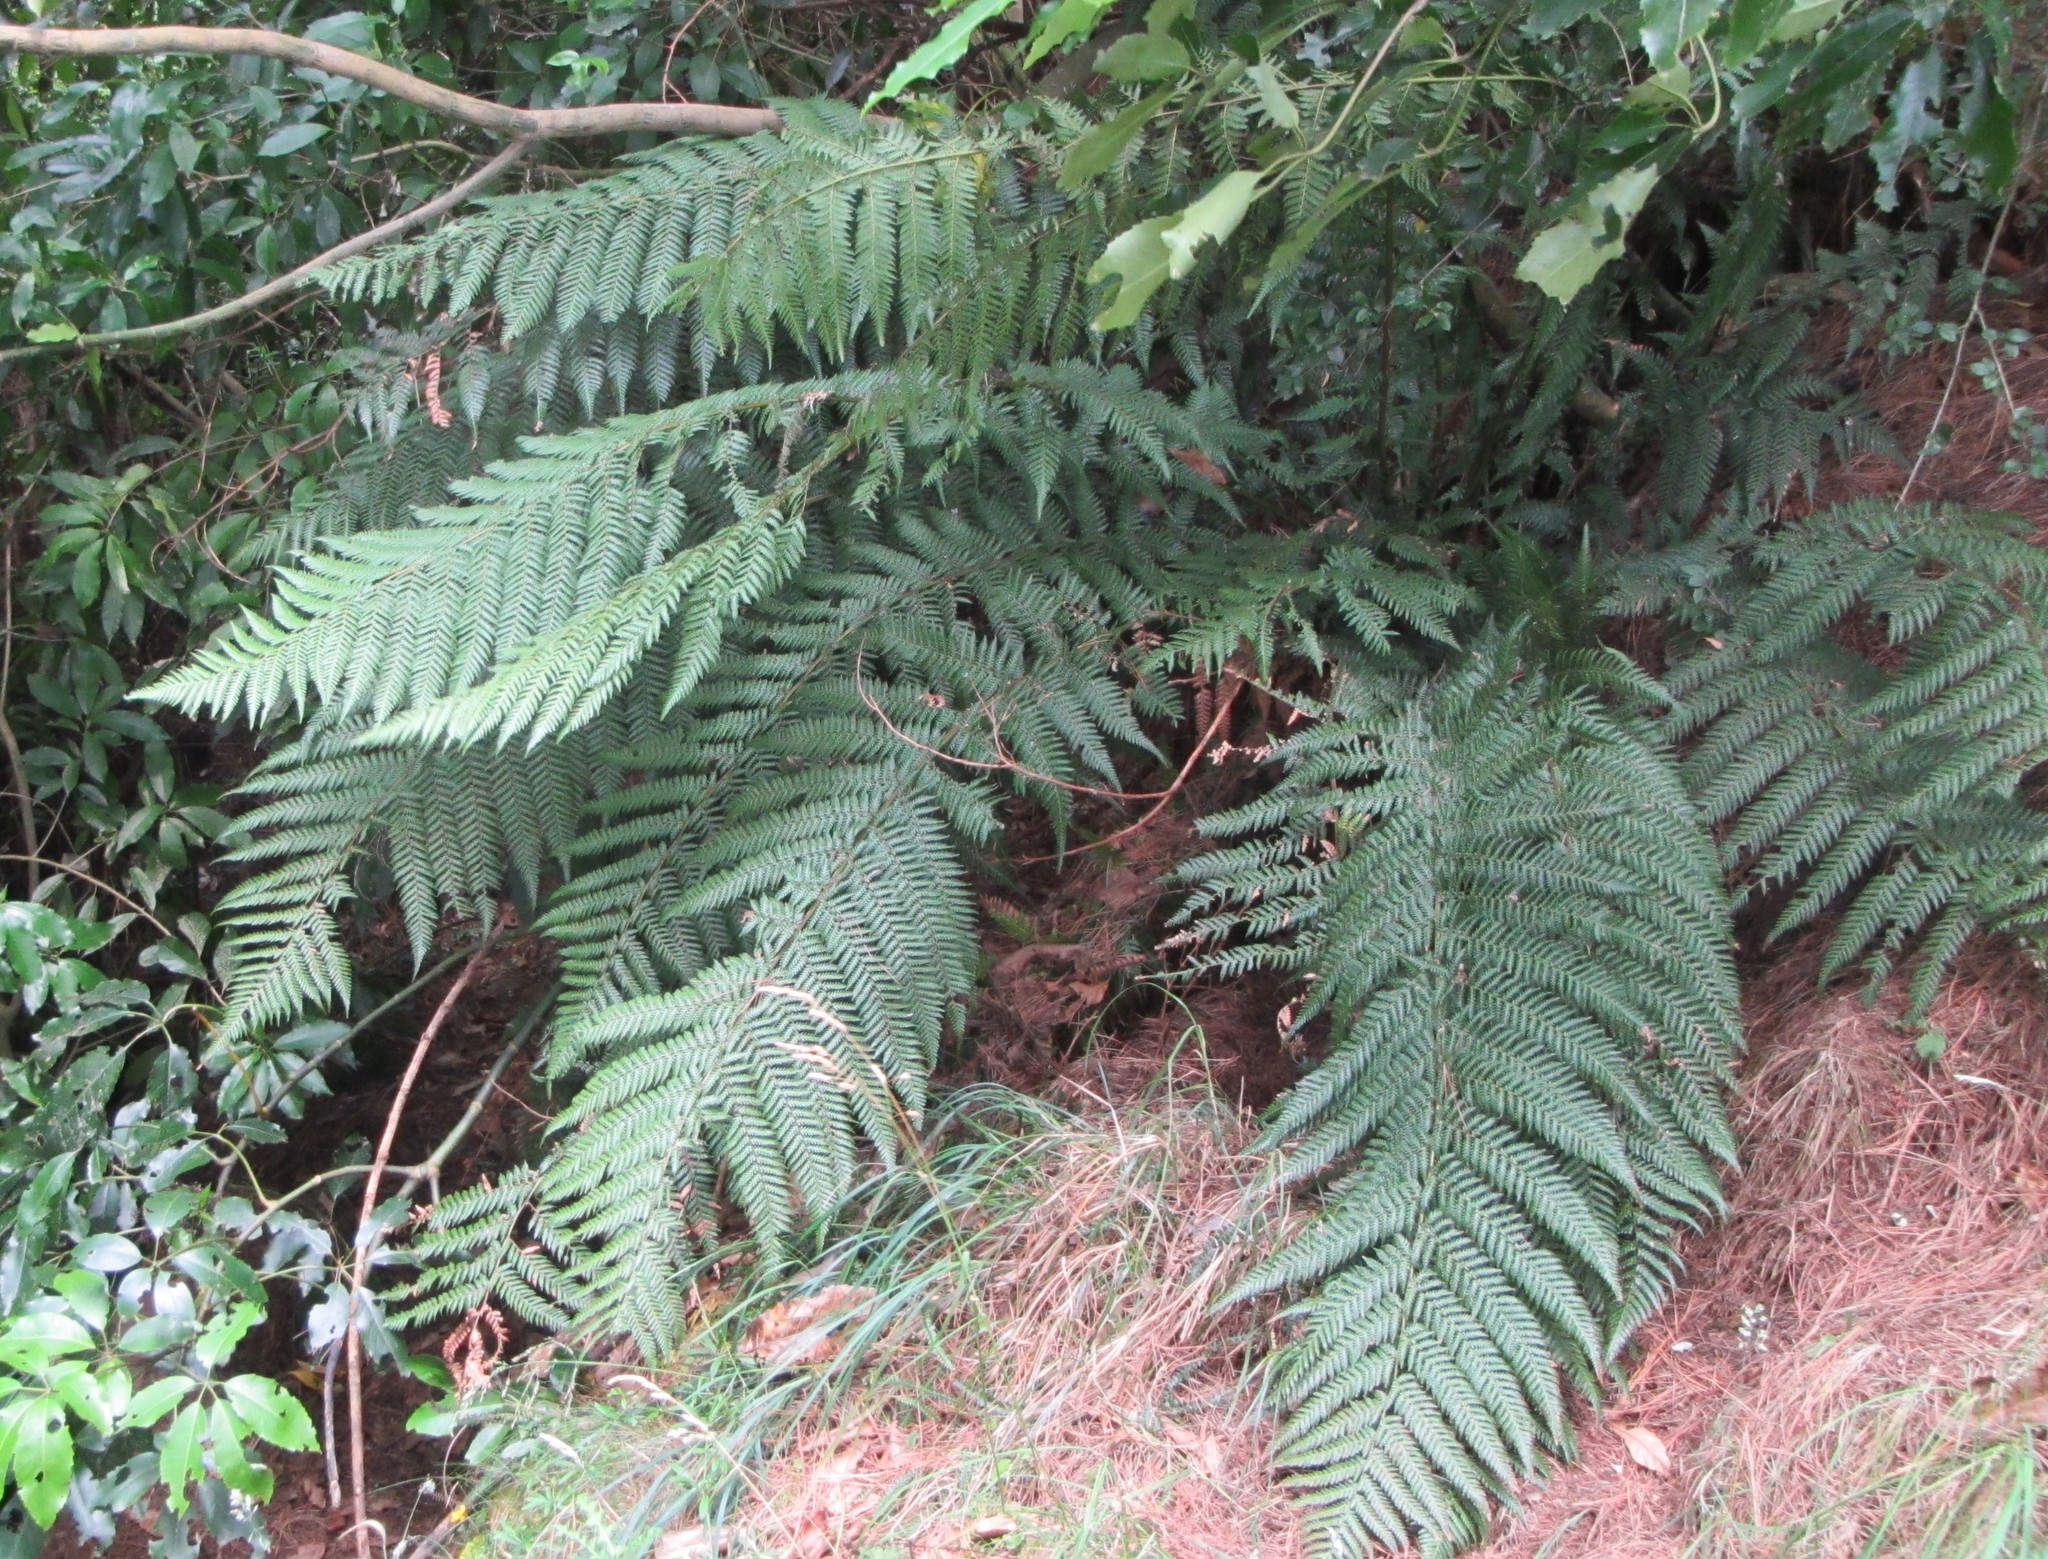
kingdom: Plantae
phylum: Tracheophyta
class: Polypodiopsida
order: Cyatheales
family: Dicksoniaceae
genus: Dicksonia
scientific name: Dicksonia fibrosa
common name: Golden tree fern
